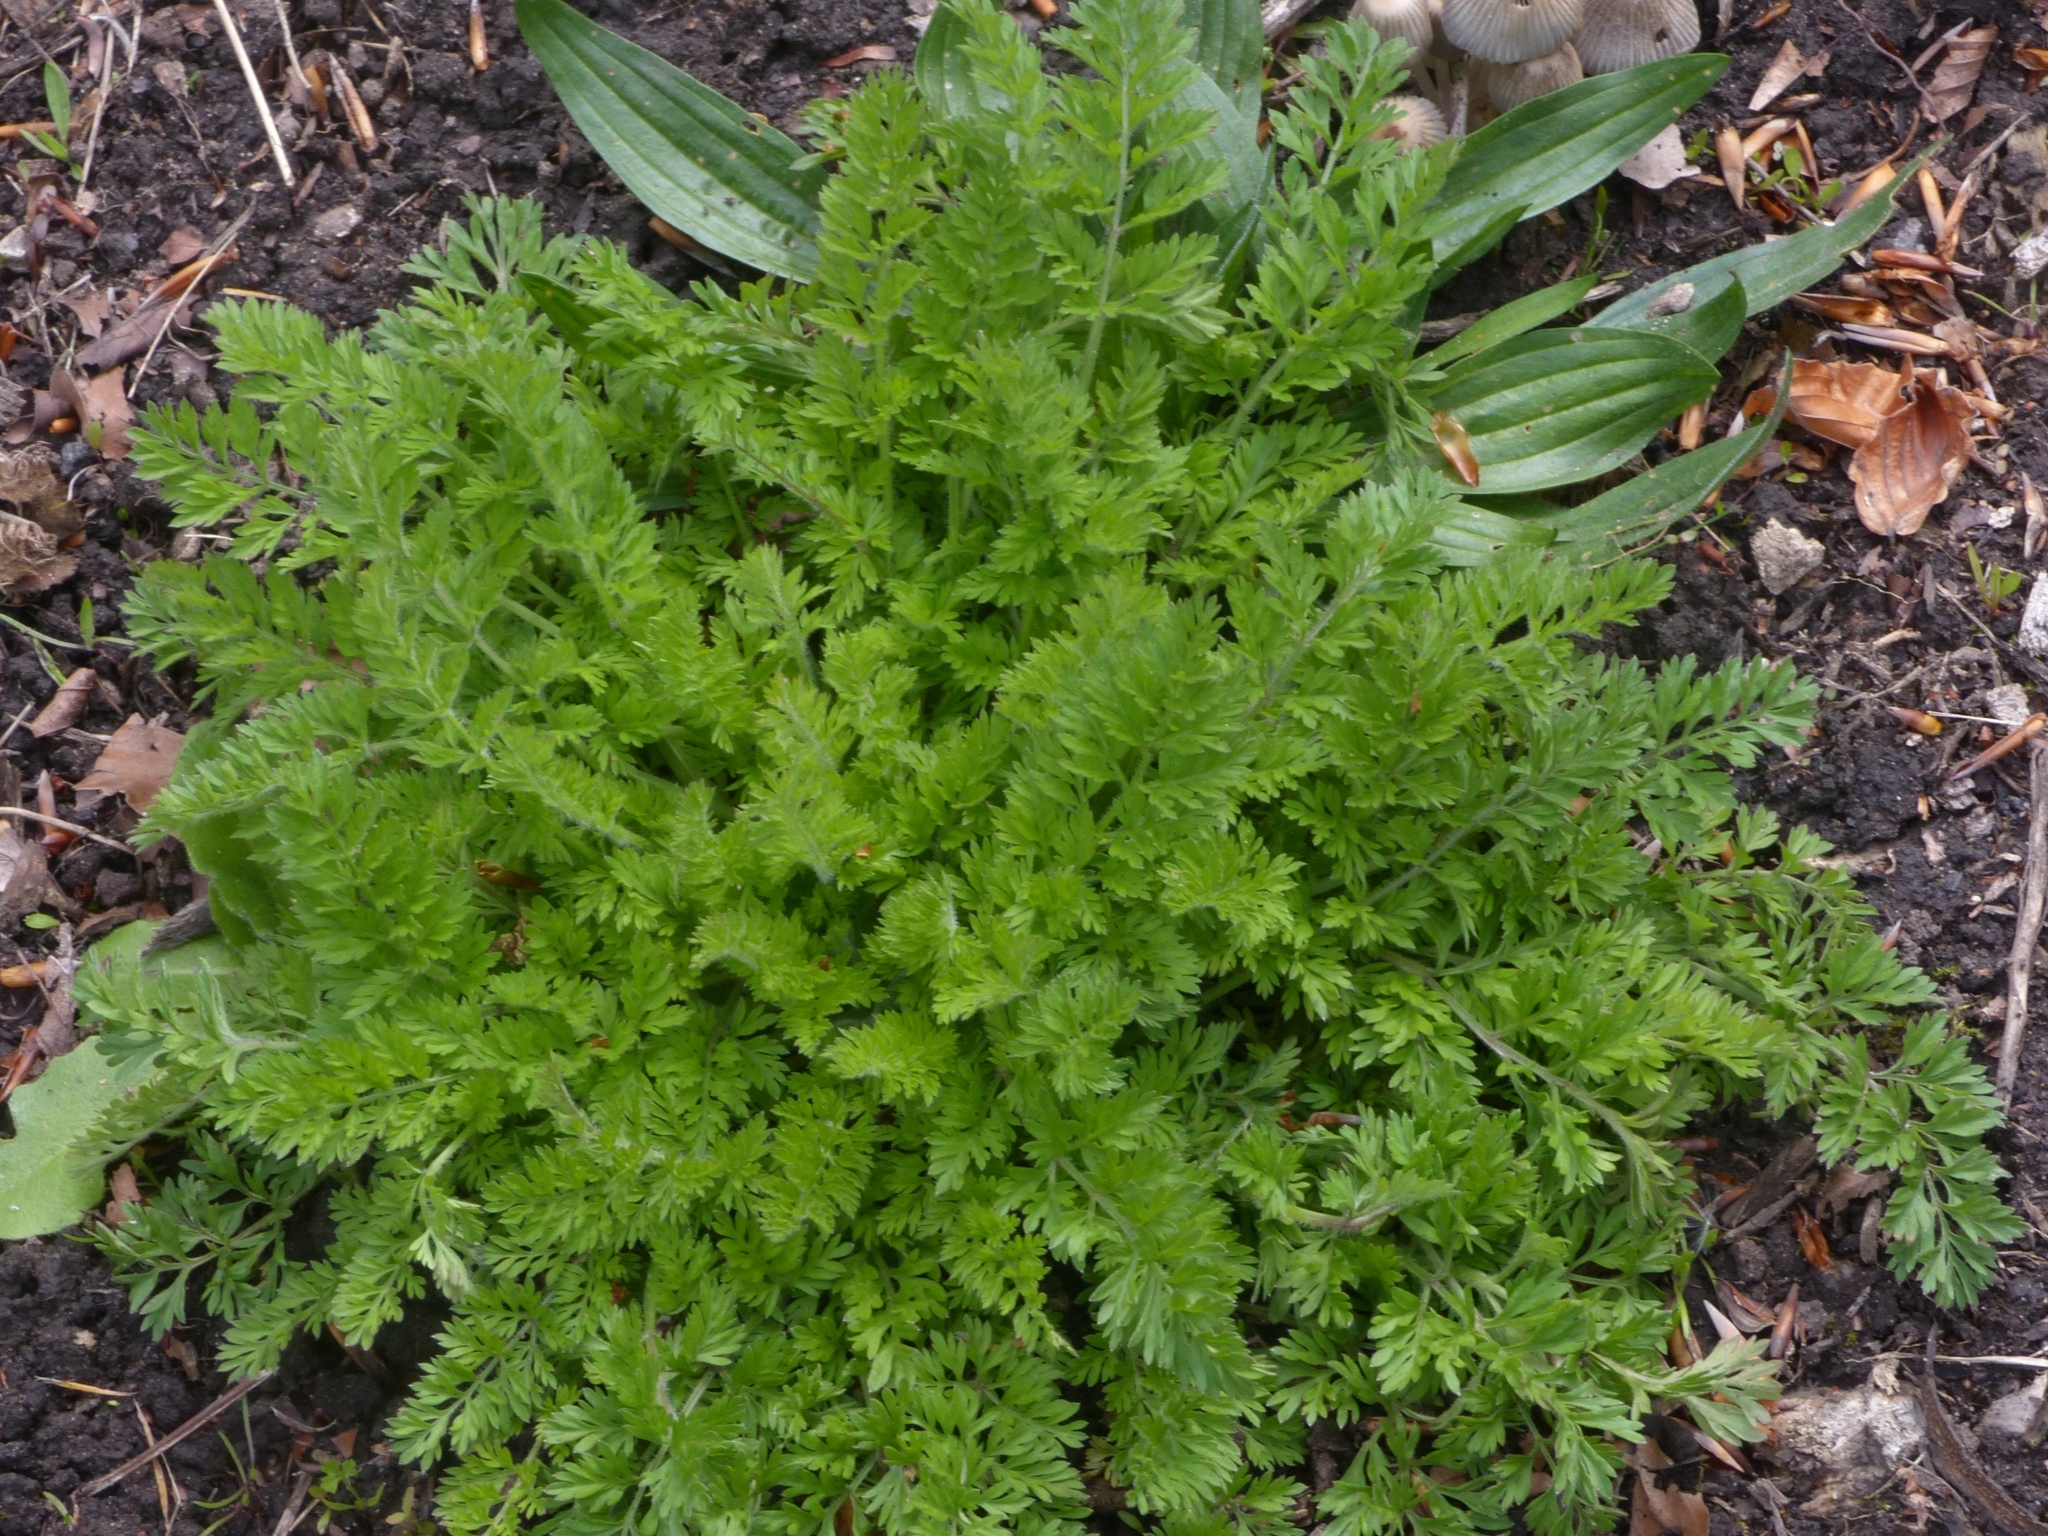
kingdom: Plantae
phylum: Tracheophyta
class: Magnoliopsida
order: Apiales
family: Apiaceae
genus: Daucus
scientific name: Daucus carota
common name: Wild carrot
